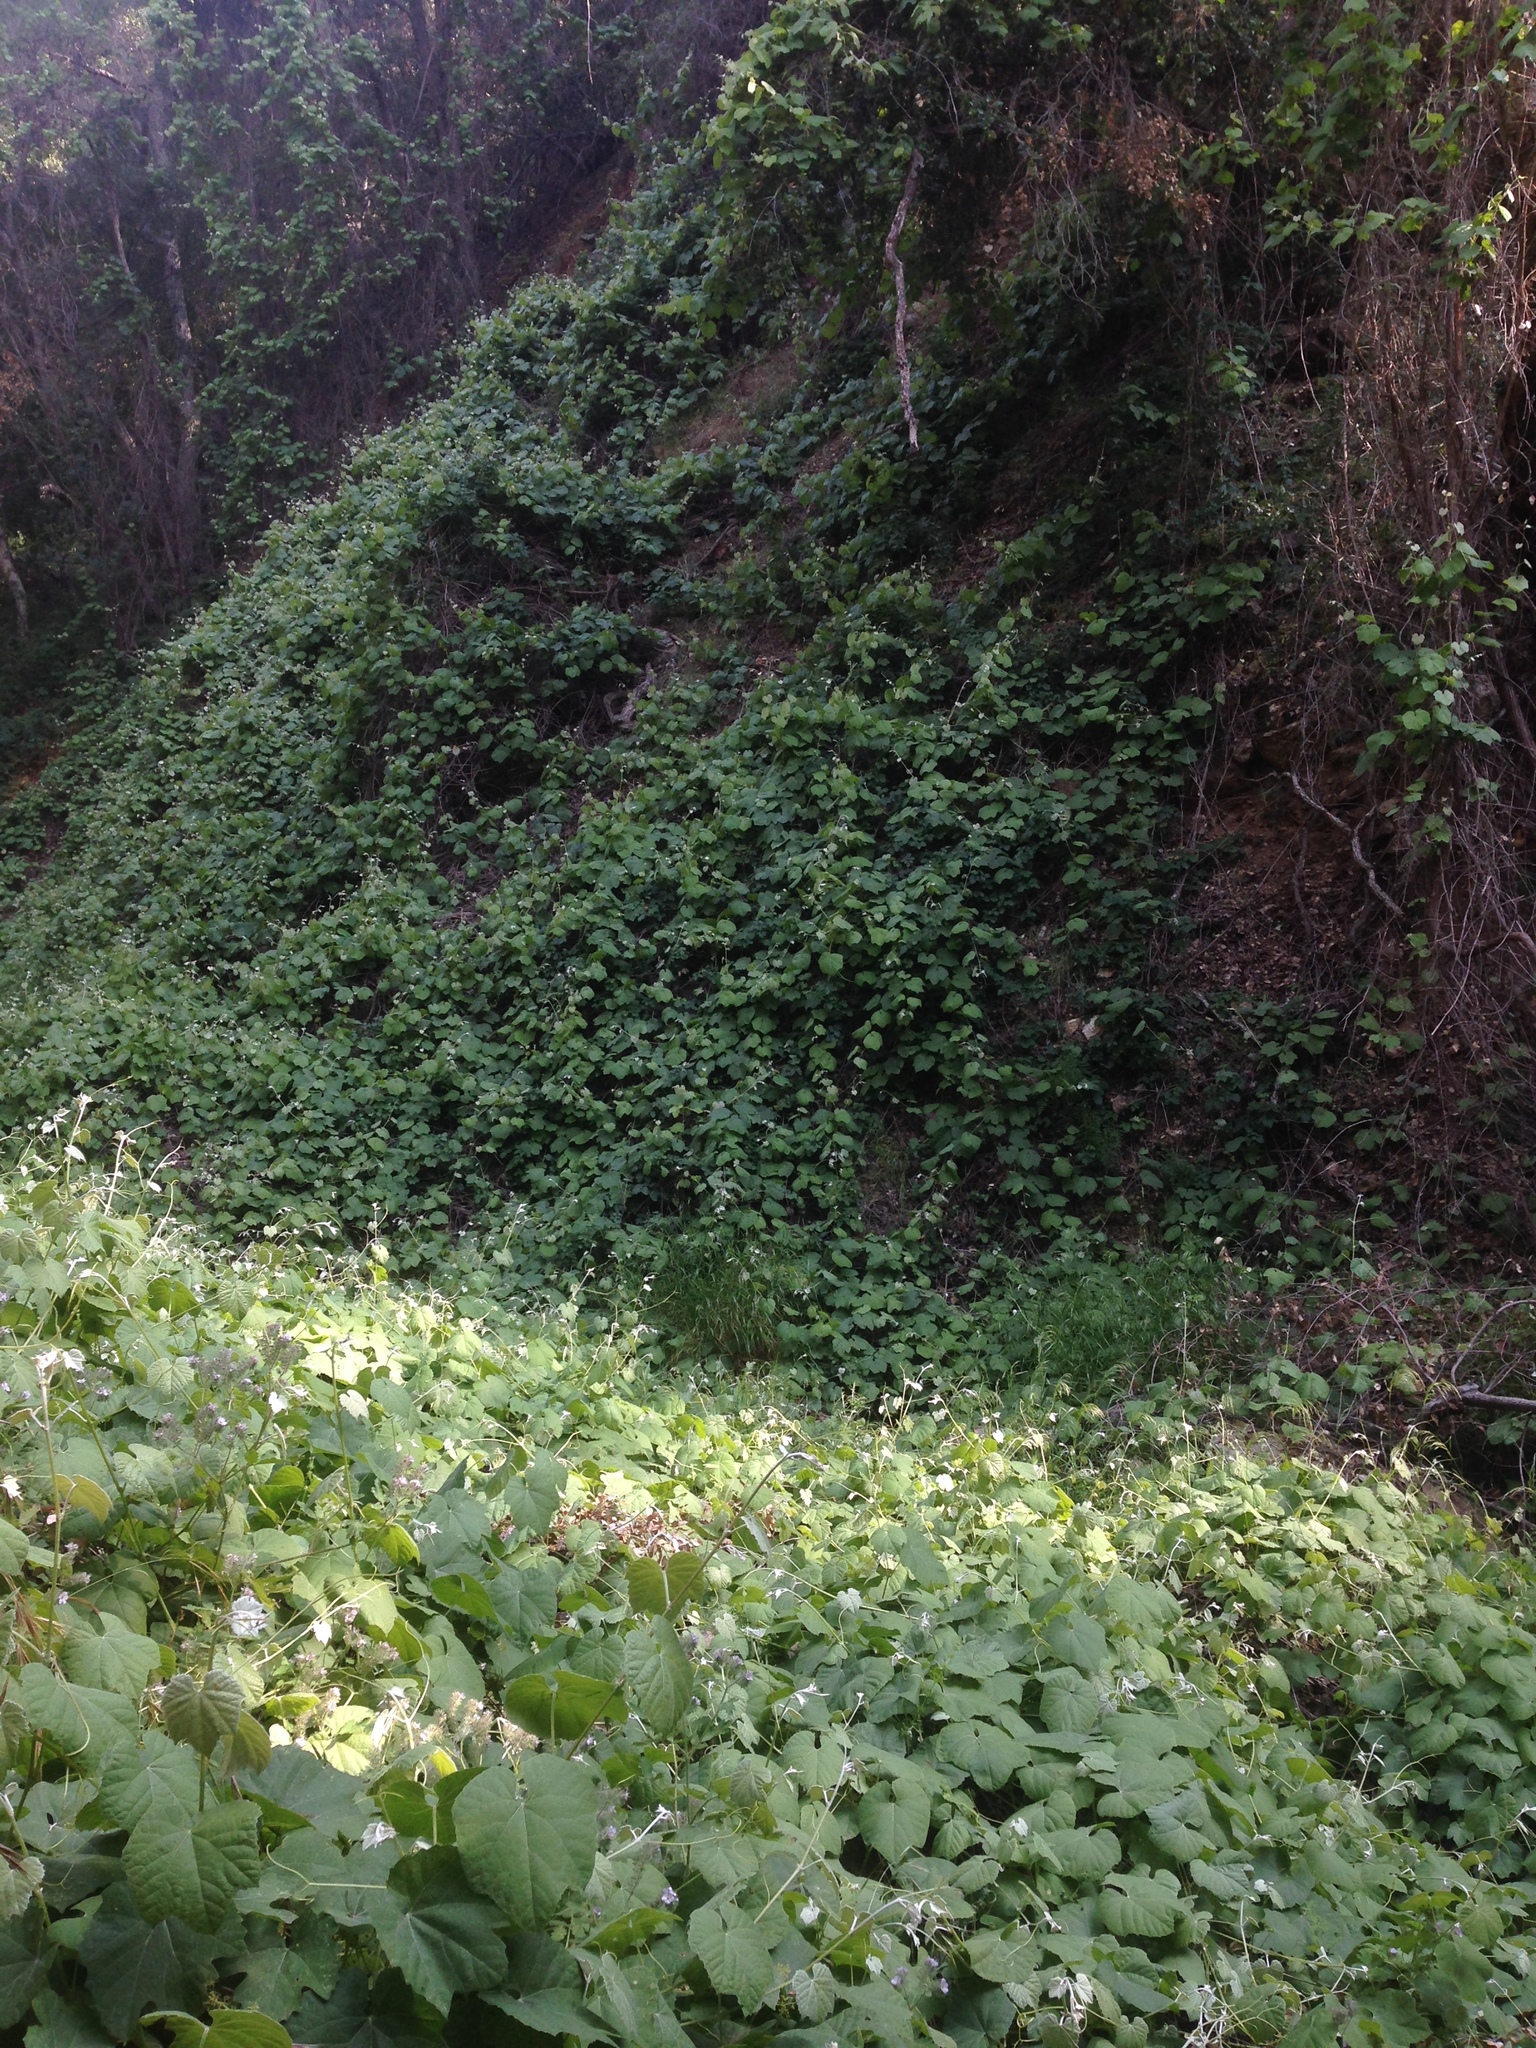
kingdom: Plantae
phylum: Tracheophyta
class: Magnoliopsida
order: Vitales
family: Vitaceae
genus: Vitis
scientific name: Vitis girdiana
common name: Desert wild grape
